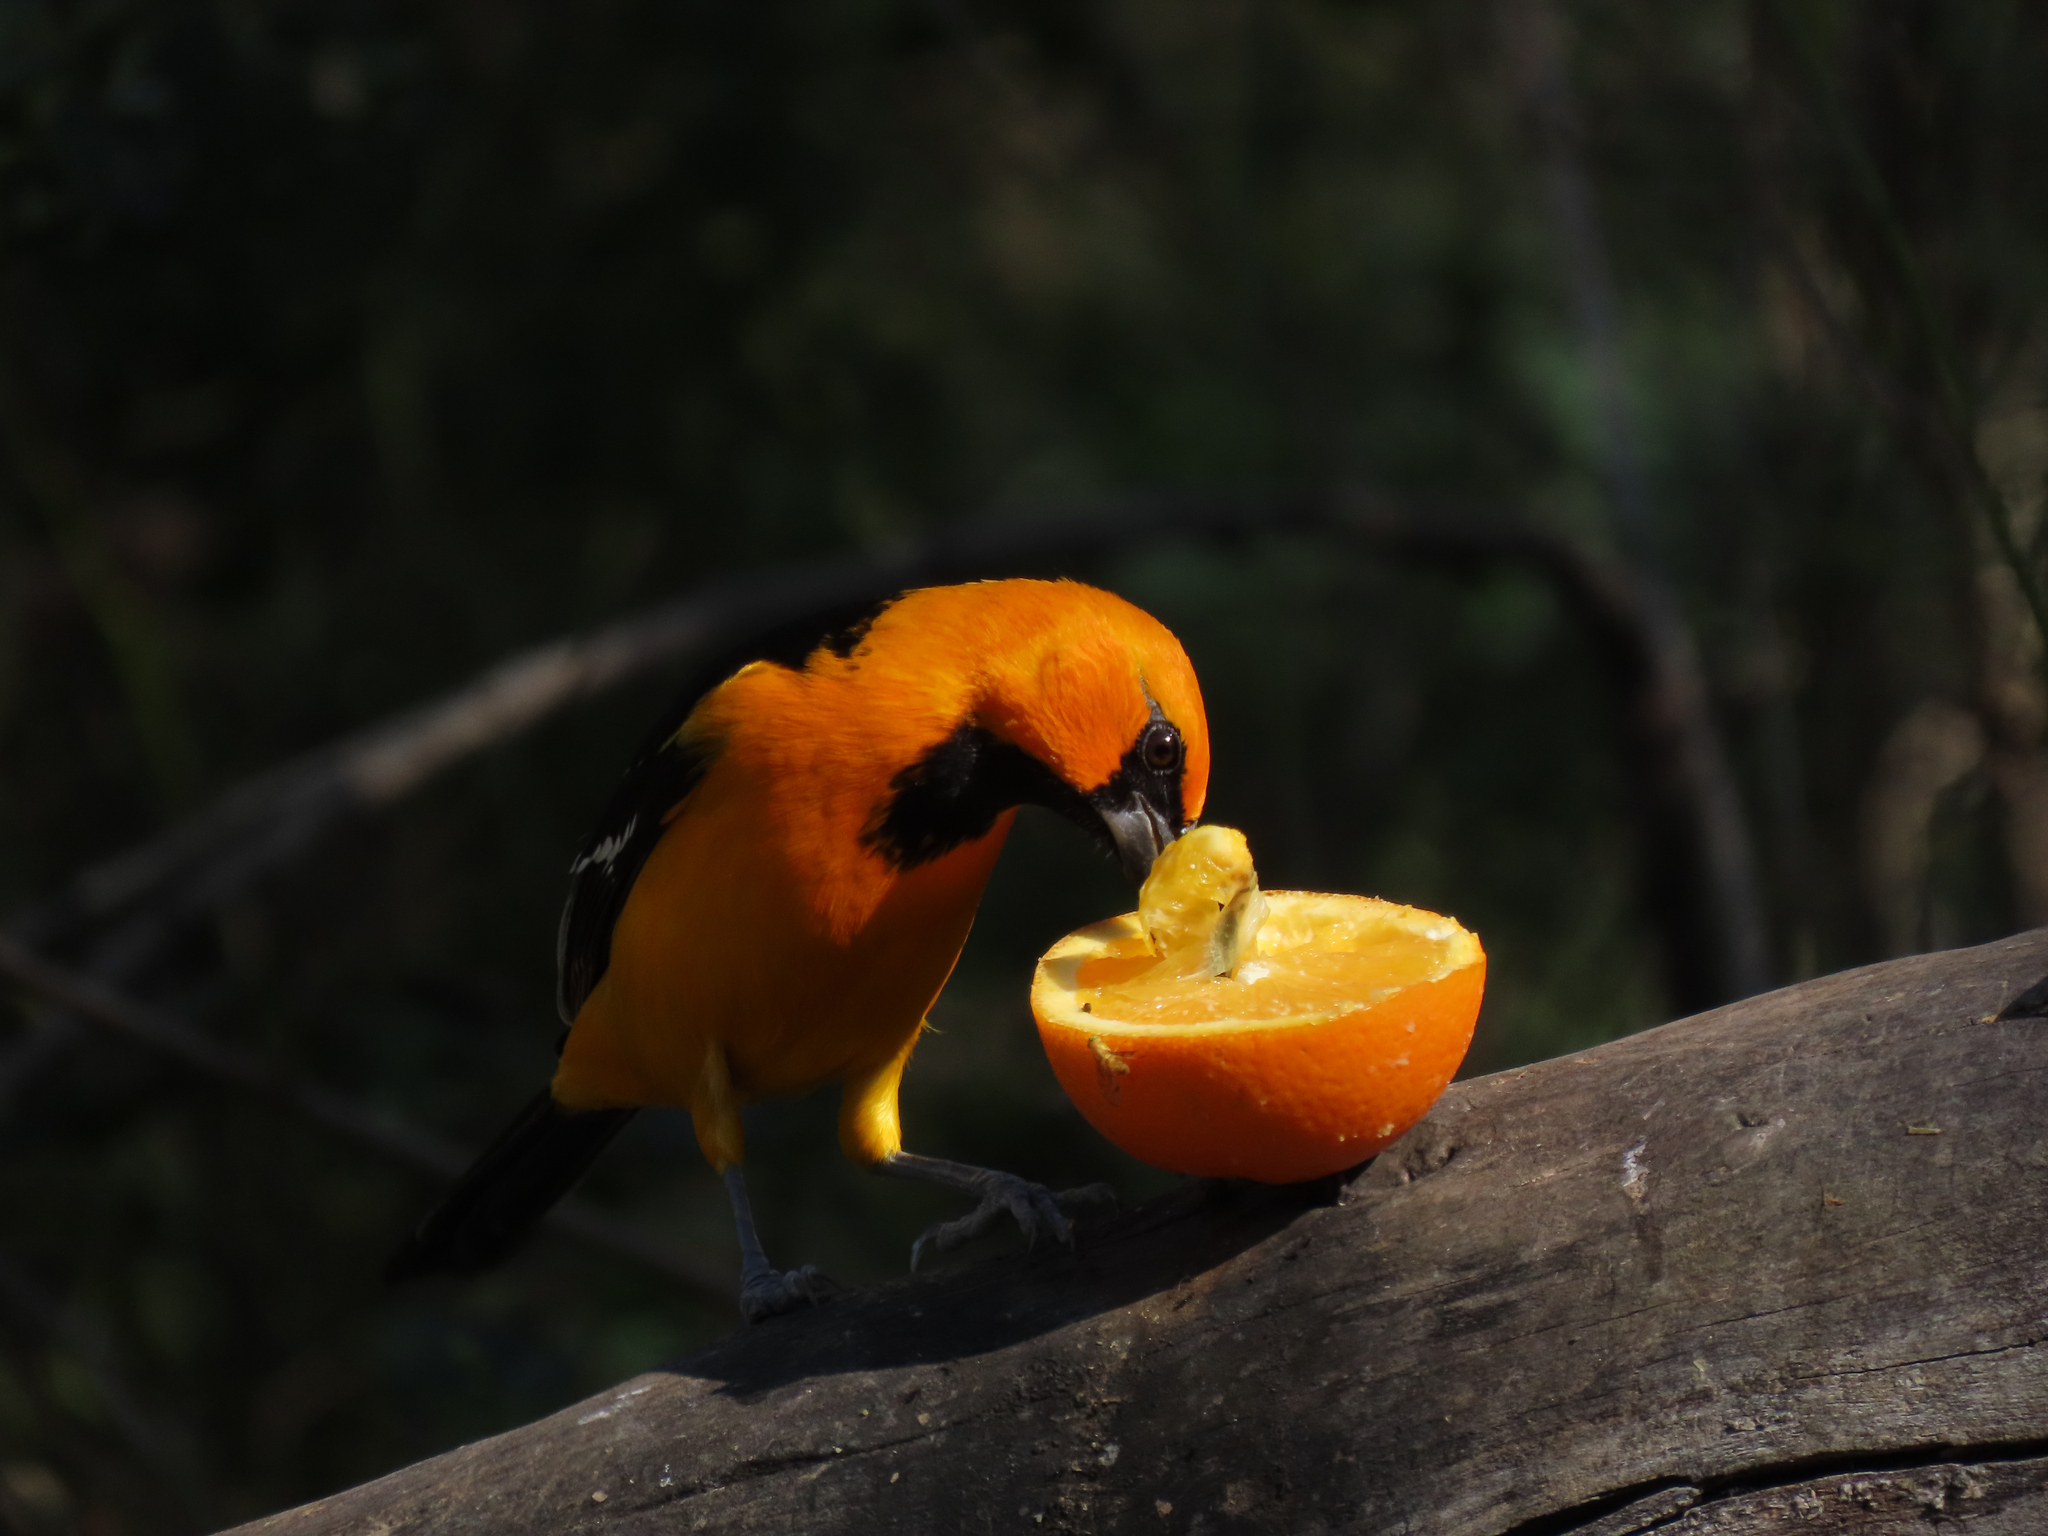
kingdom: Animalia
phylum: Chordata
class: Aves
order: Passeriformes
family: Icteridae
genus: Icterus
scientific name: Icterus gularis
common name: Altamira oriole
